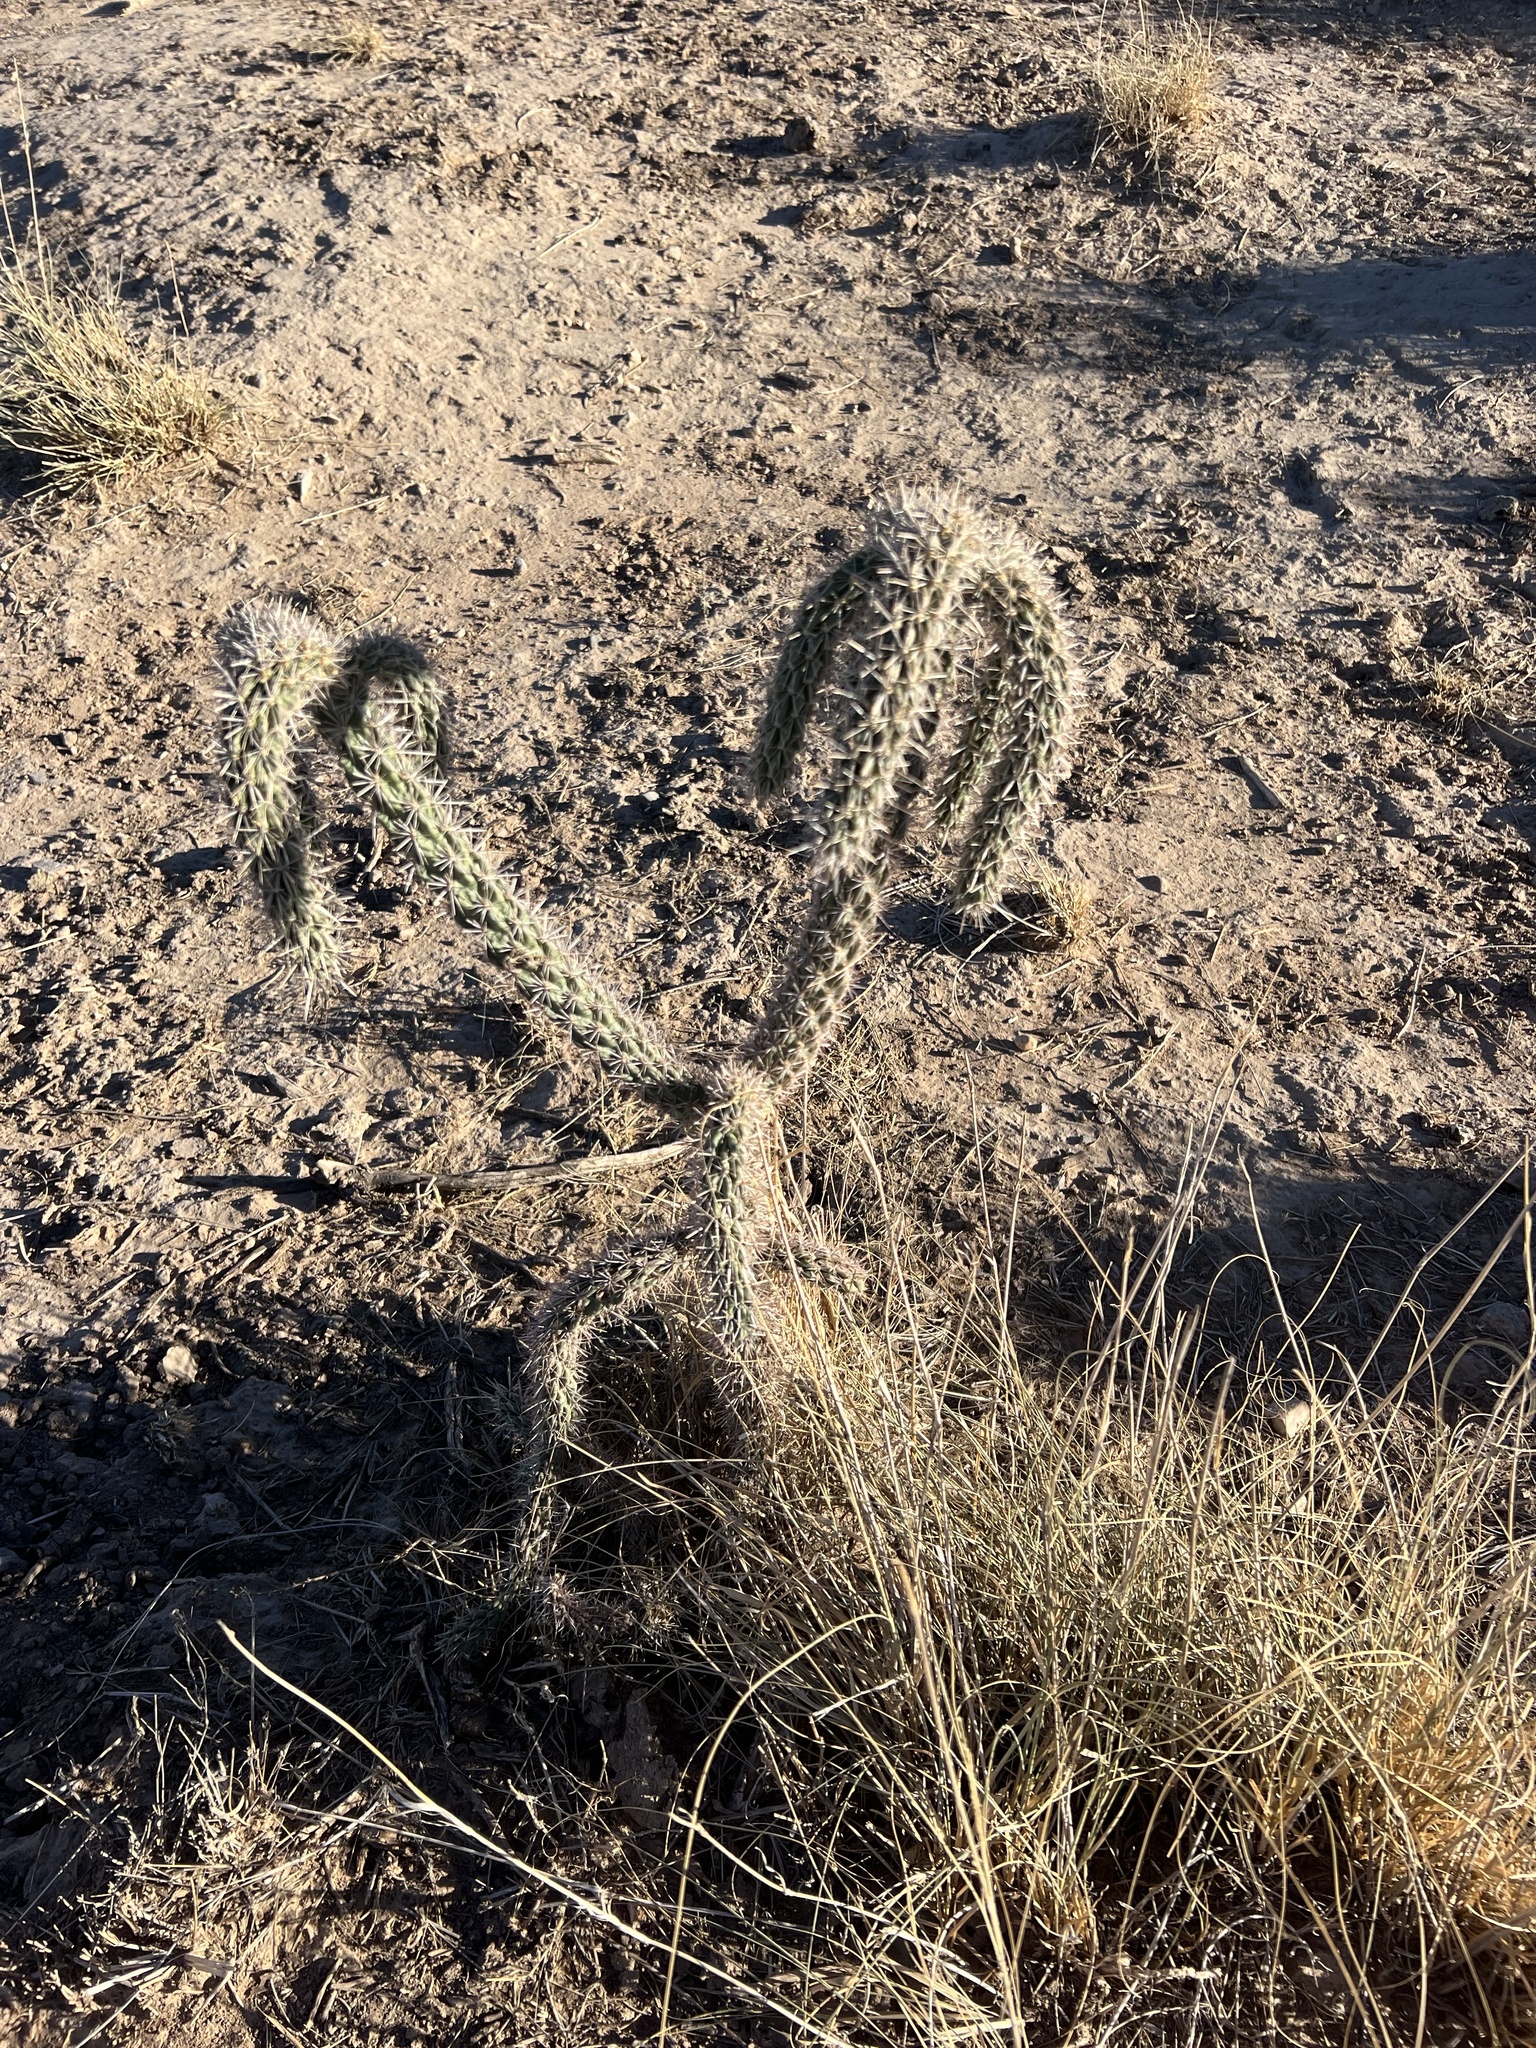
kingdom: Plantae
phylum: Tracheophyta
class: Magnoliopsida
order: Caryophyllales
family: Cactaceae
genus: Cylindropuntia
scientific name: Cylindropuntia imbricata
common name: Candelabrum cactus
